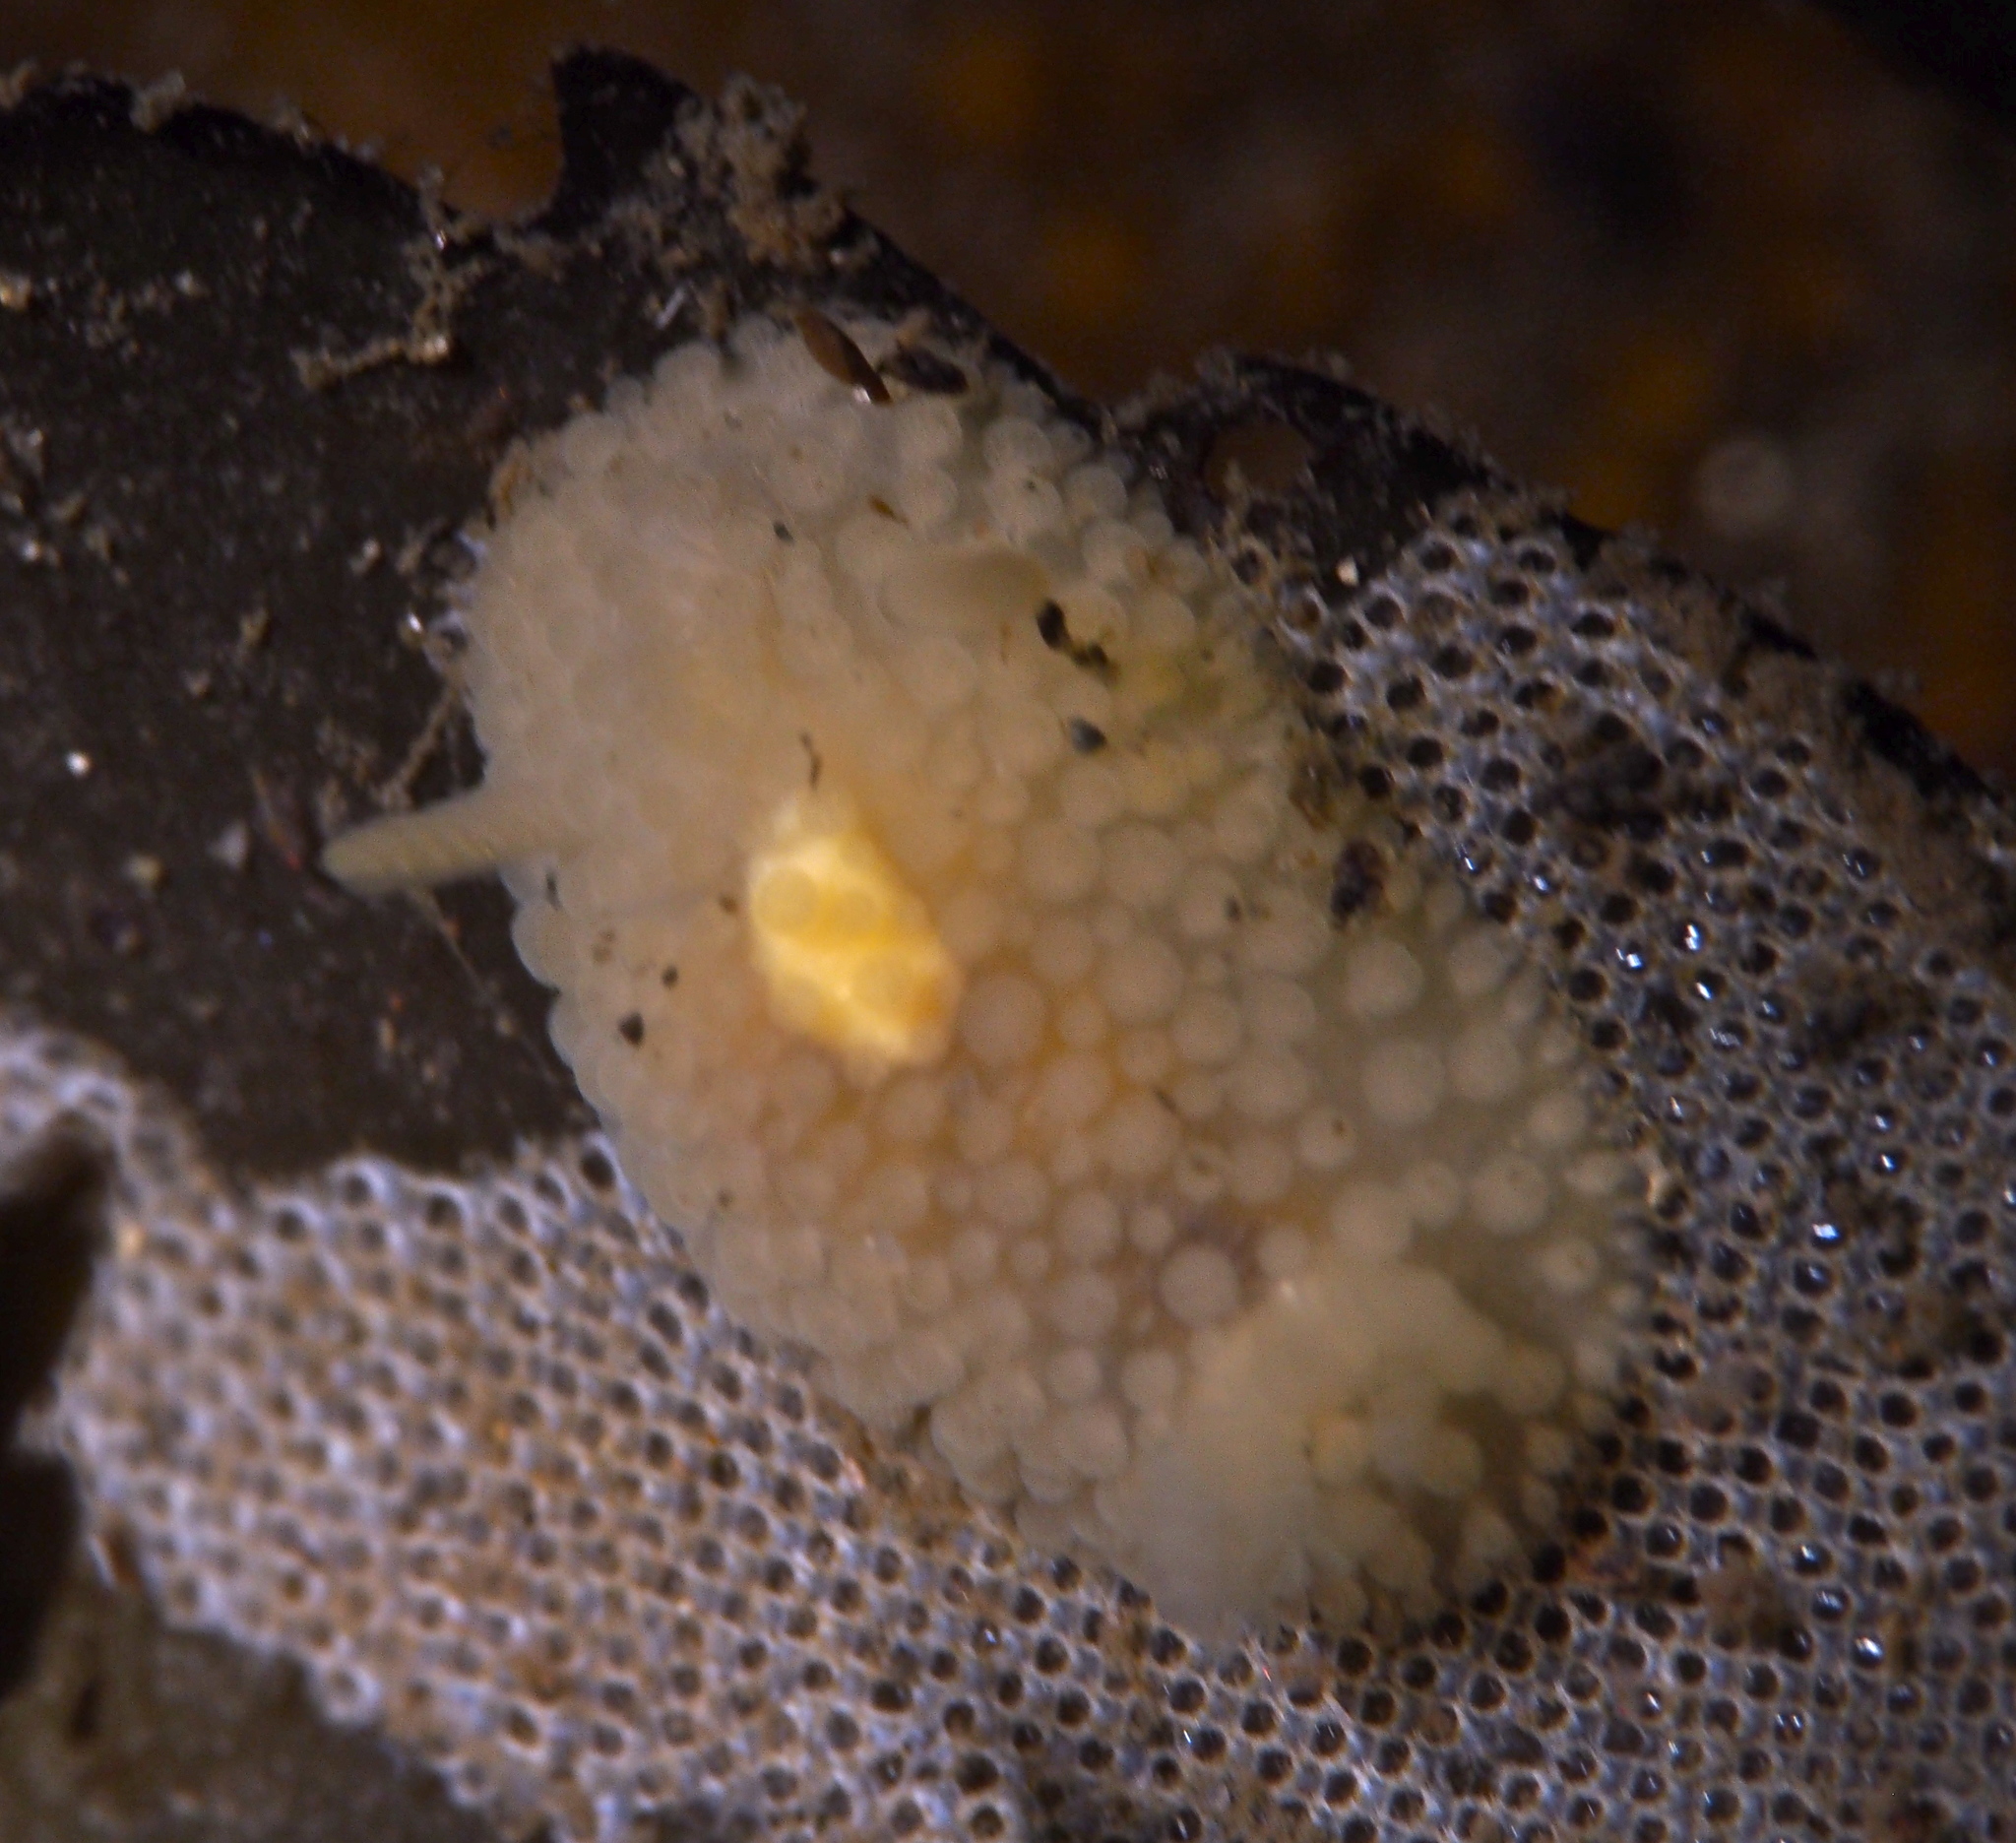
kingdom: Animalia
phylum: Mollusca
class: Gastropoda
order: Nudibranchia
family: Onchidorididae
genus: Onchidoris
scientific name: Onchidoris muricata
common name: Rough doris
